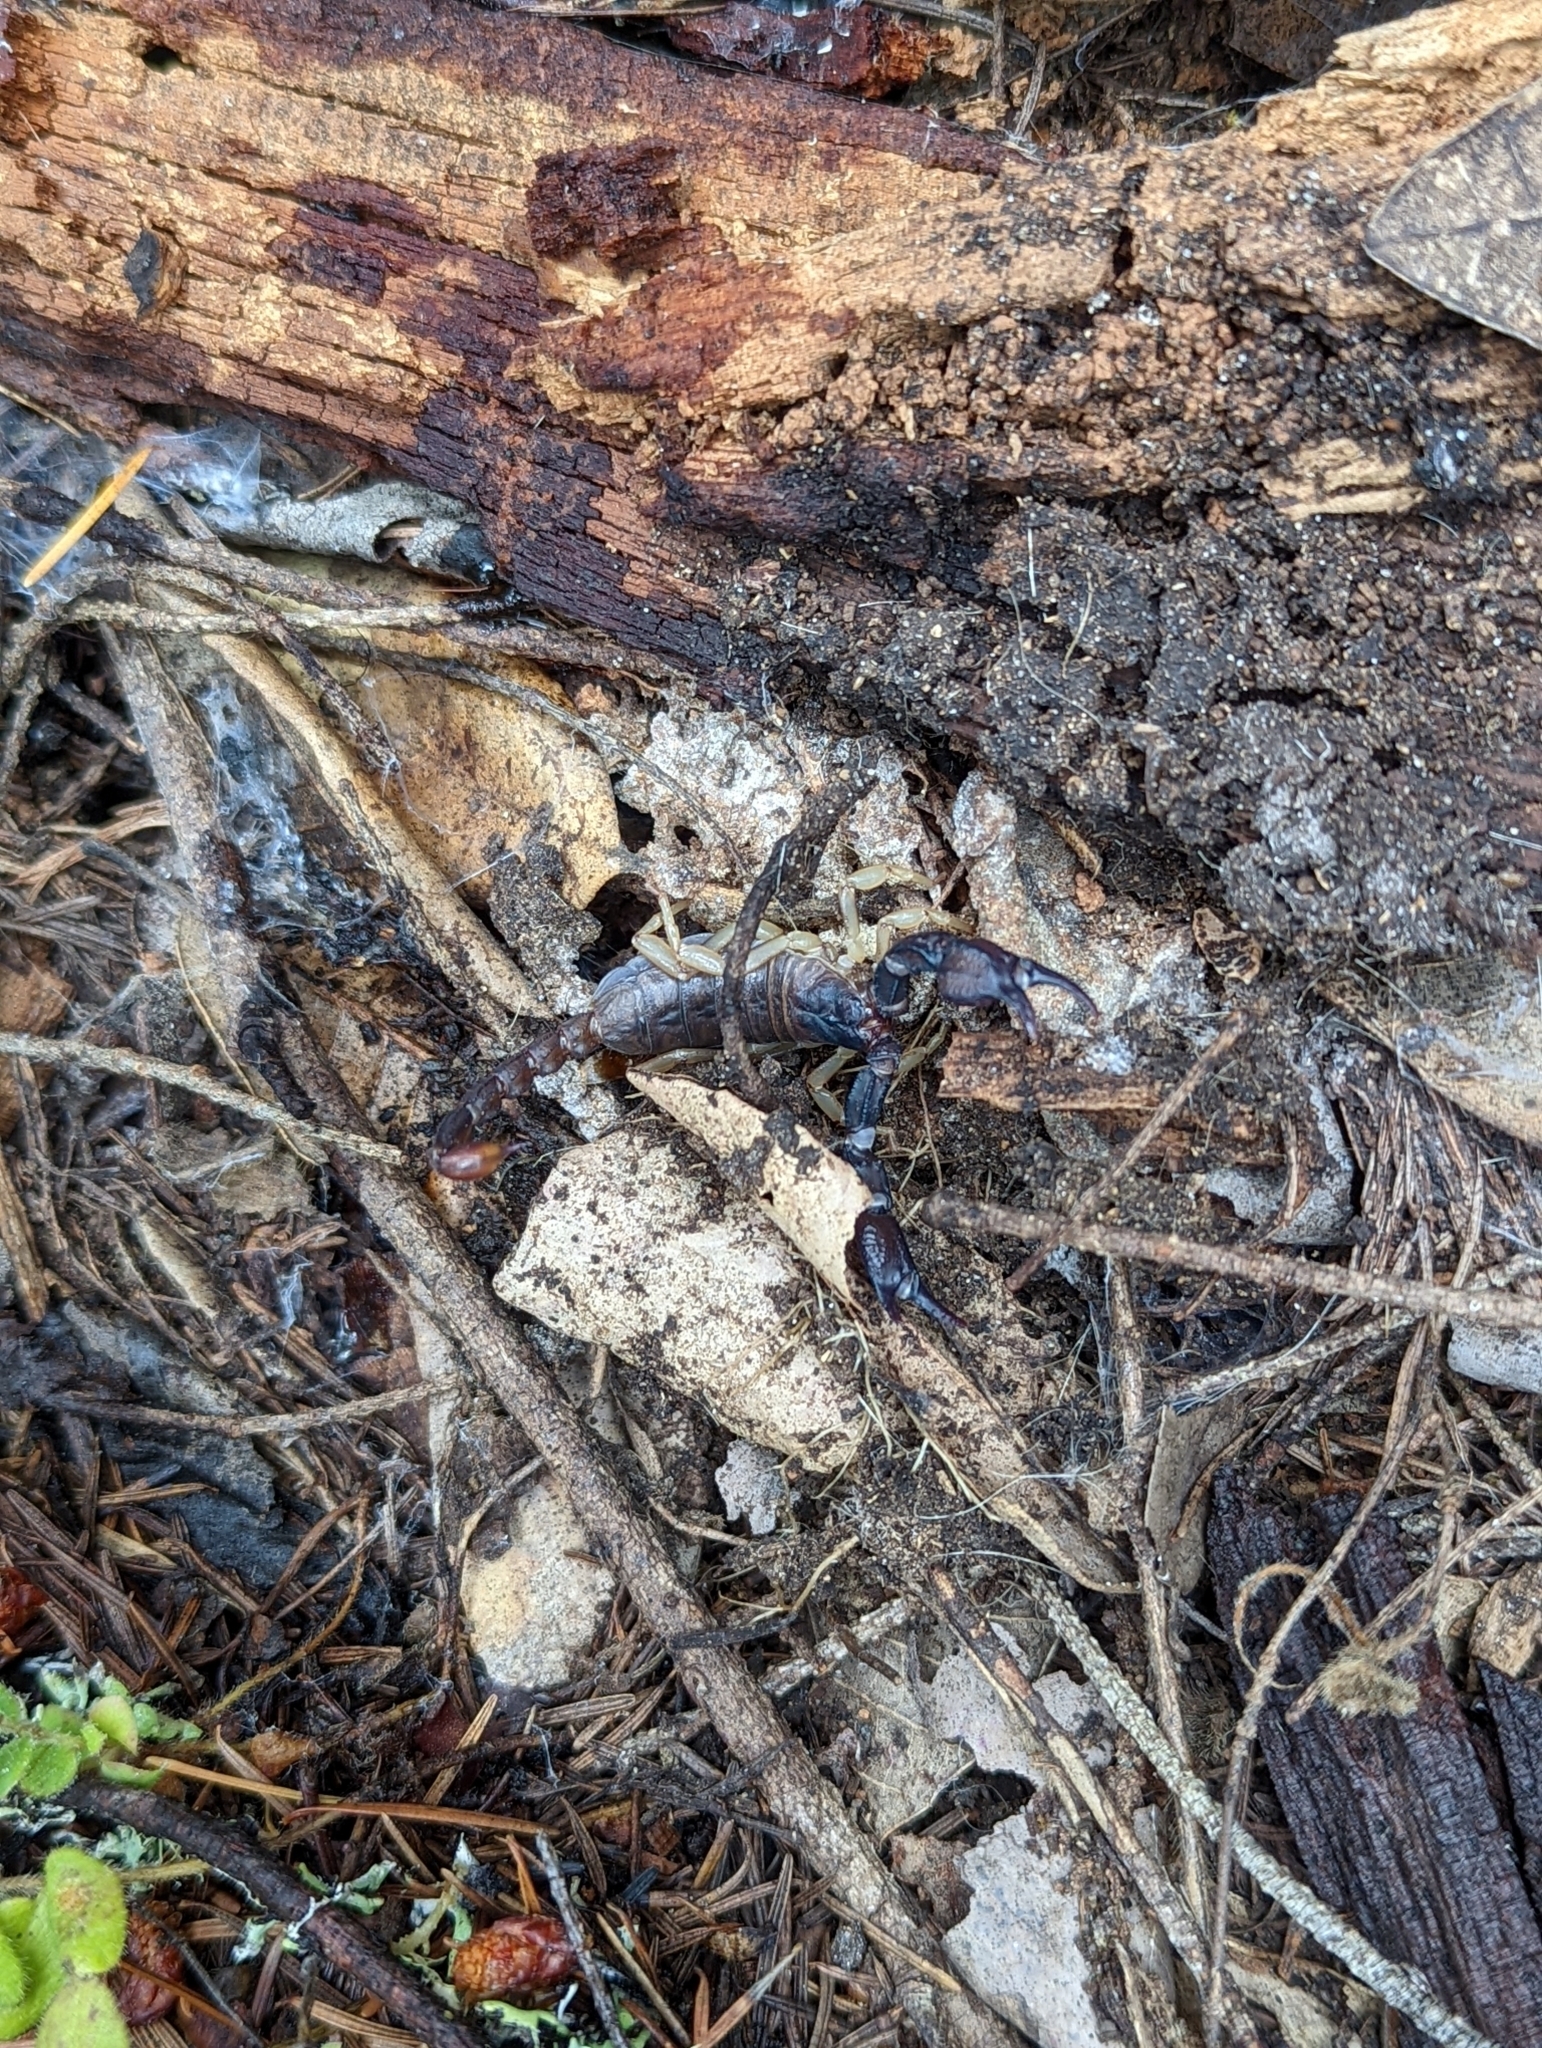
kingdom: Animalia
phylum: Arthropoda
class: Arachnida
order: Scorpiones
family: Chactidae
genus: Uroctonus
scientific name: Uroctonus mordax
